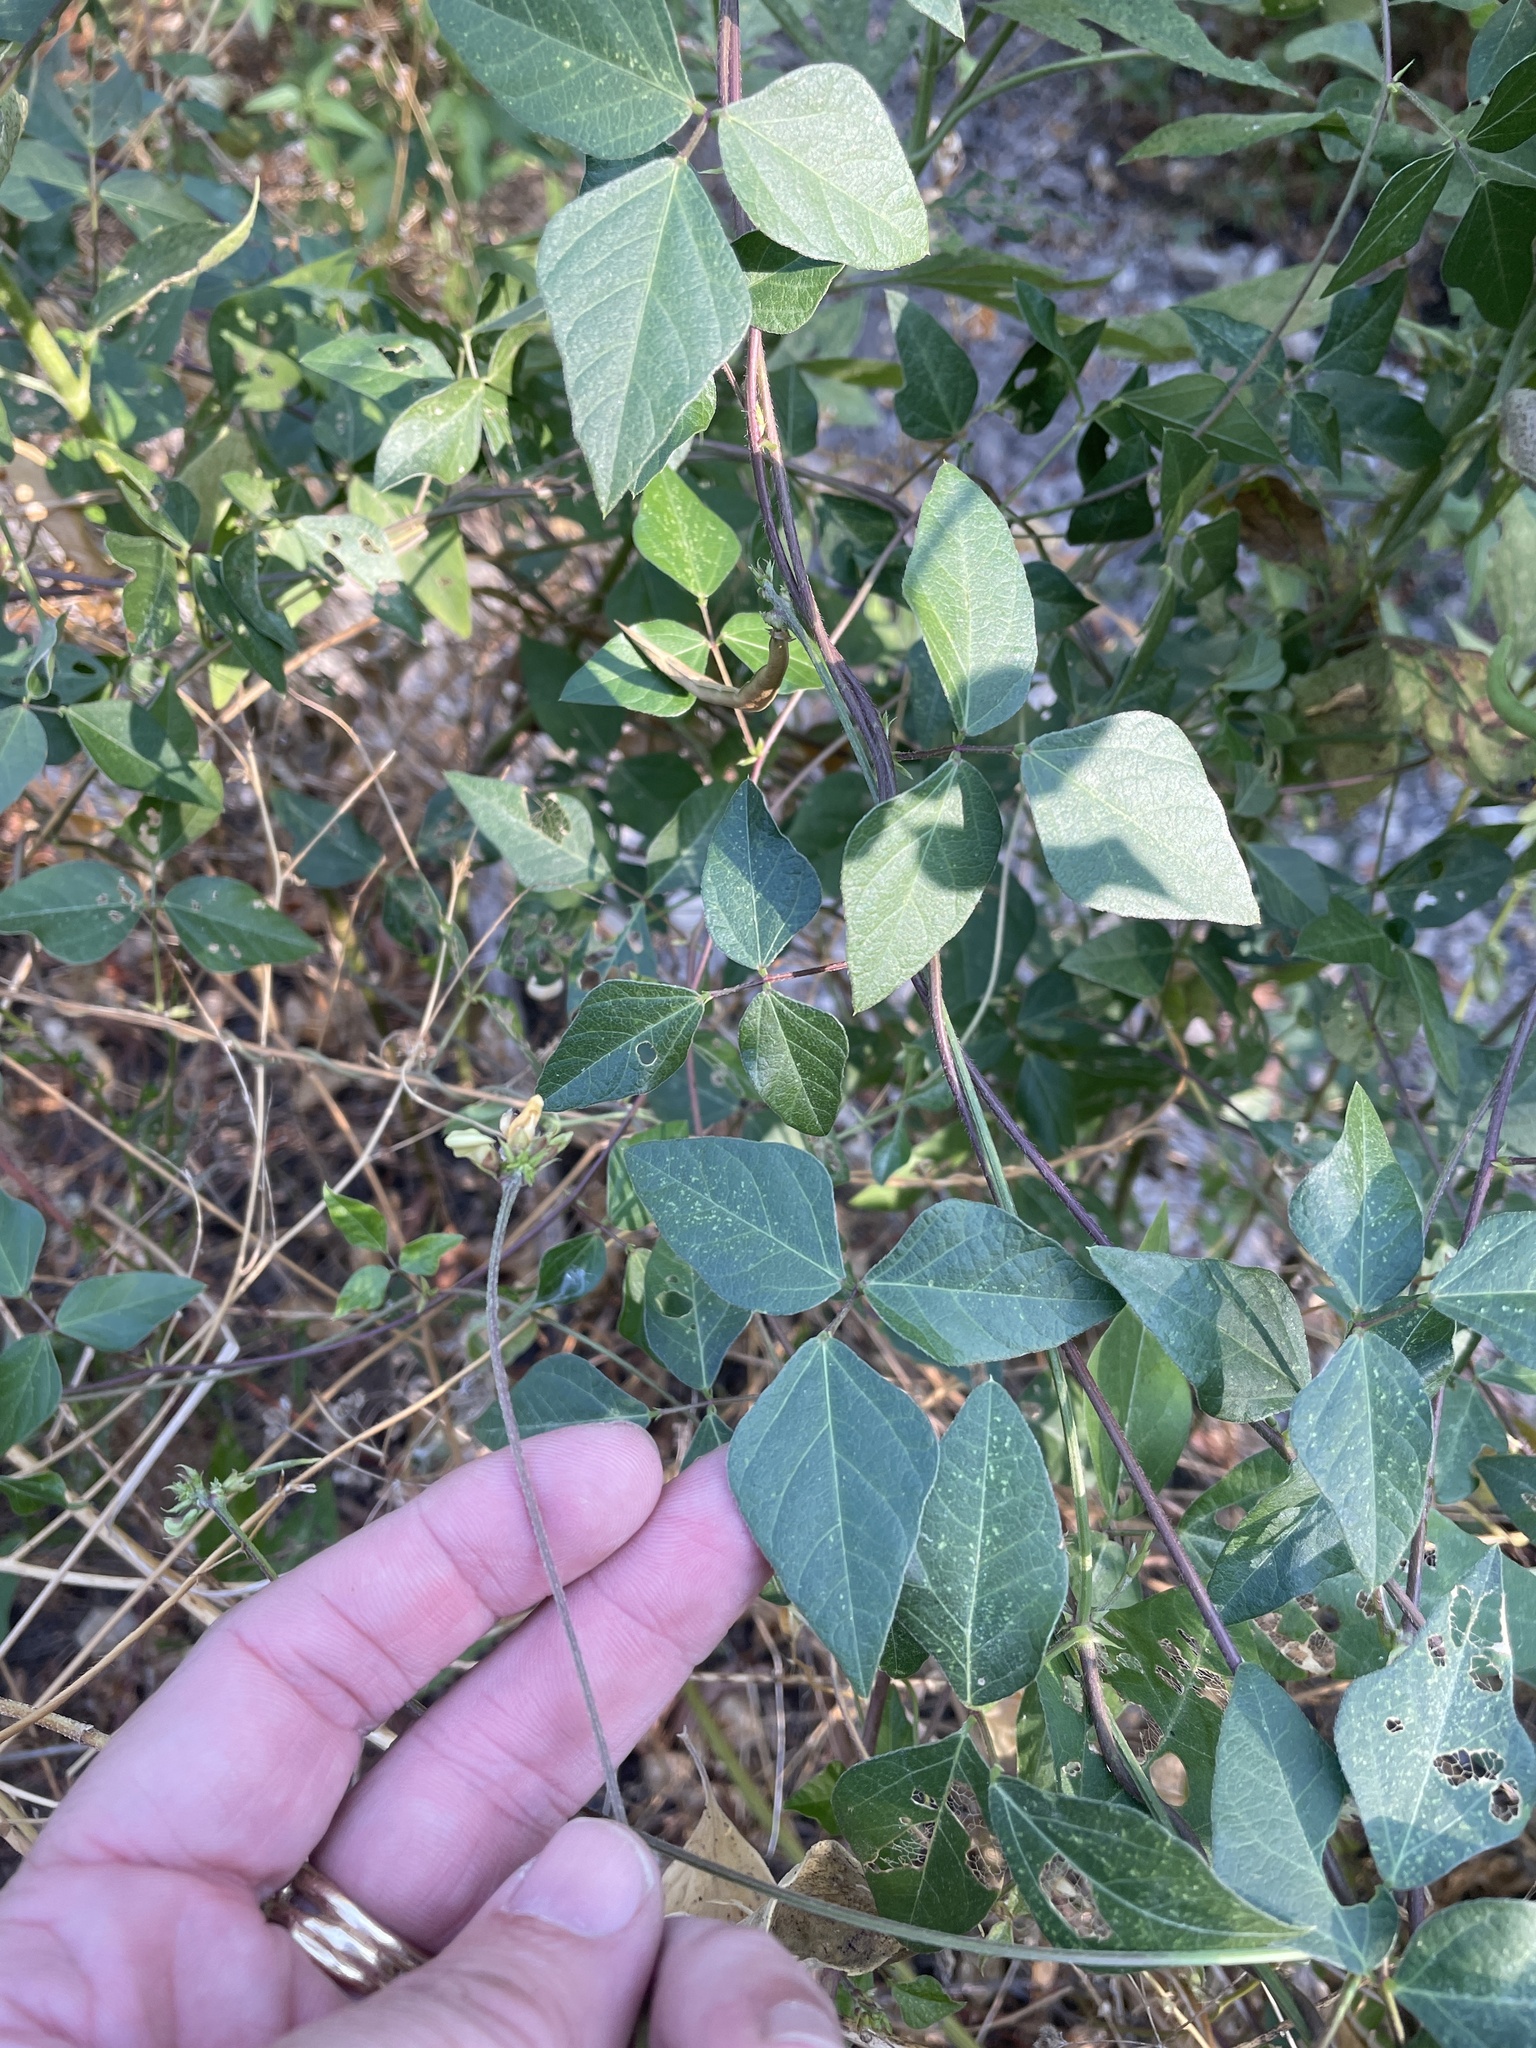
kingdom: Plantae
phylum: Tracheophyta
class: Magnoliopsida
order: Fabales
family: Fabaceae
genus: Strophostyles
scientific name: Strophostyles helvola
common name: Trailing wild bean
